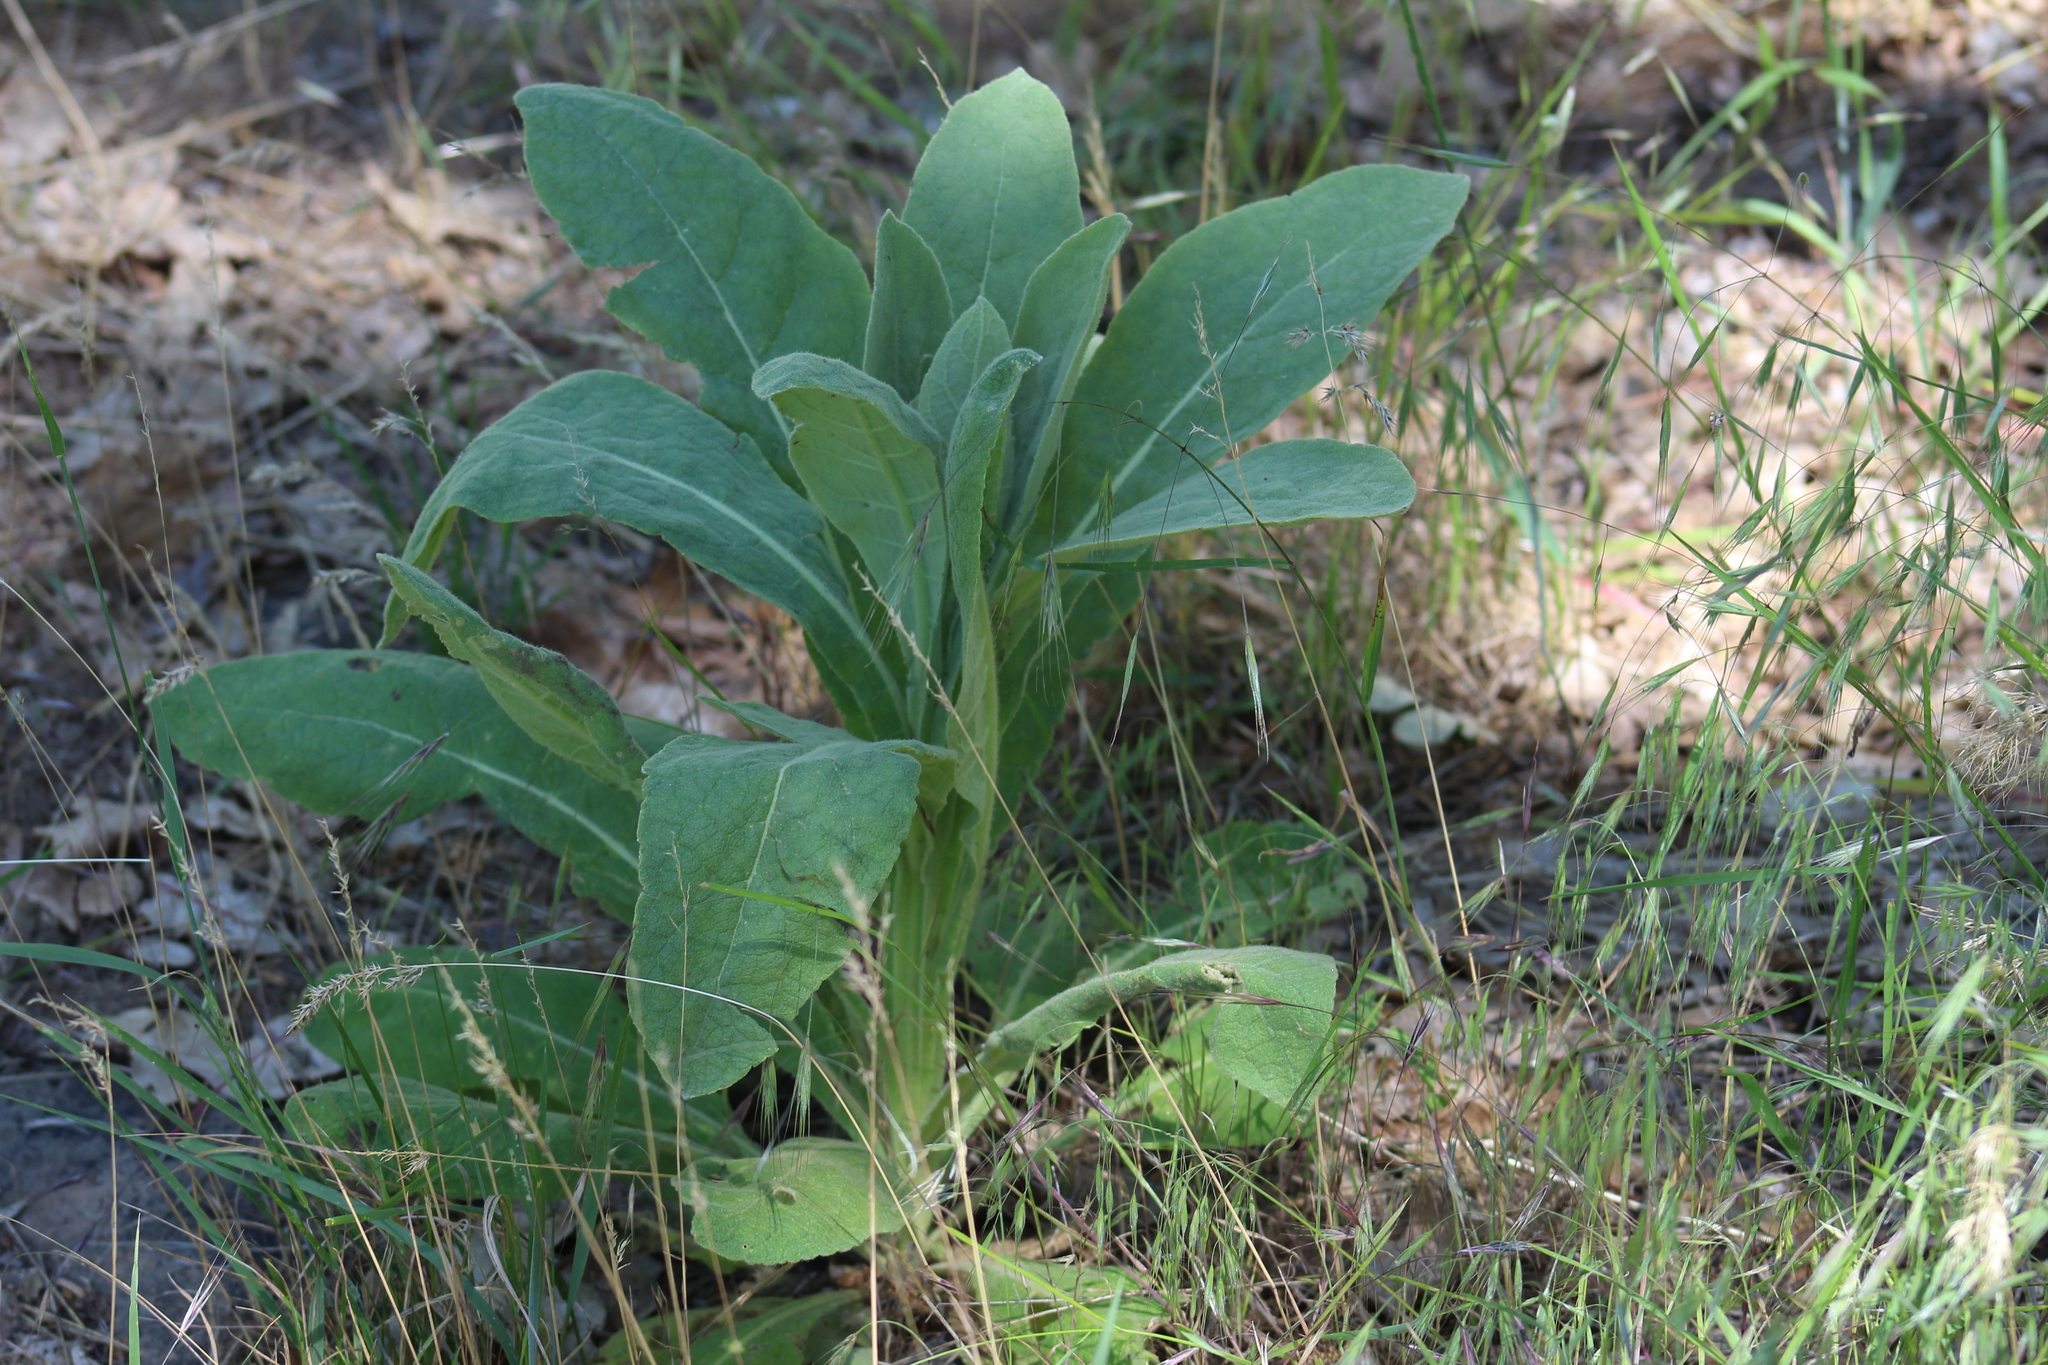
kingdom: Plantae
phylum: Tracheophyta
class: Magnoliopsida
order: Lamiales
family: Scrophulariaceae
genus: Verbascum
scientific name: Verbascum thapsus
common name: Common mullein
